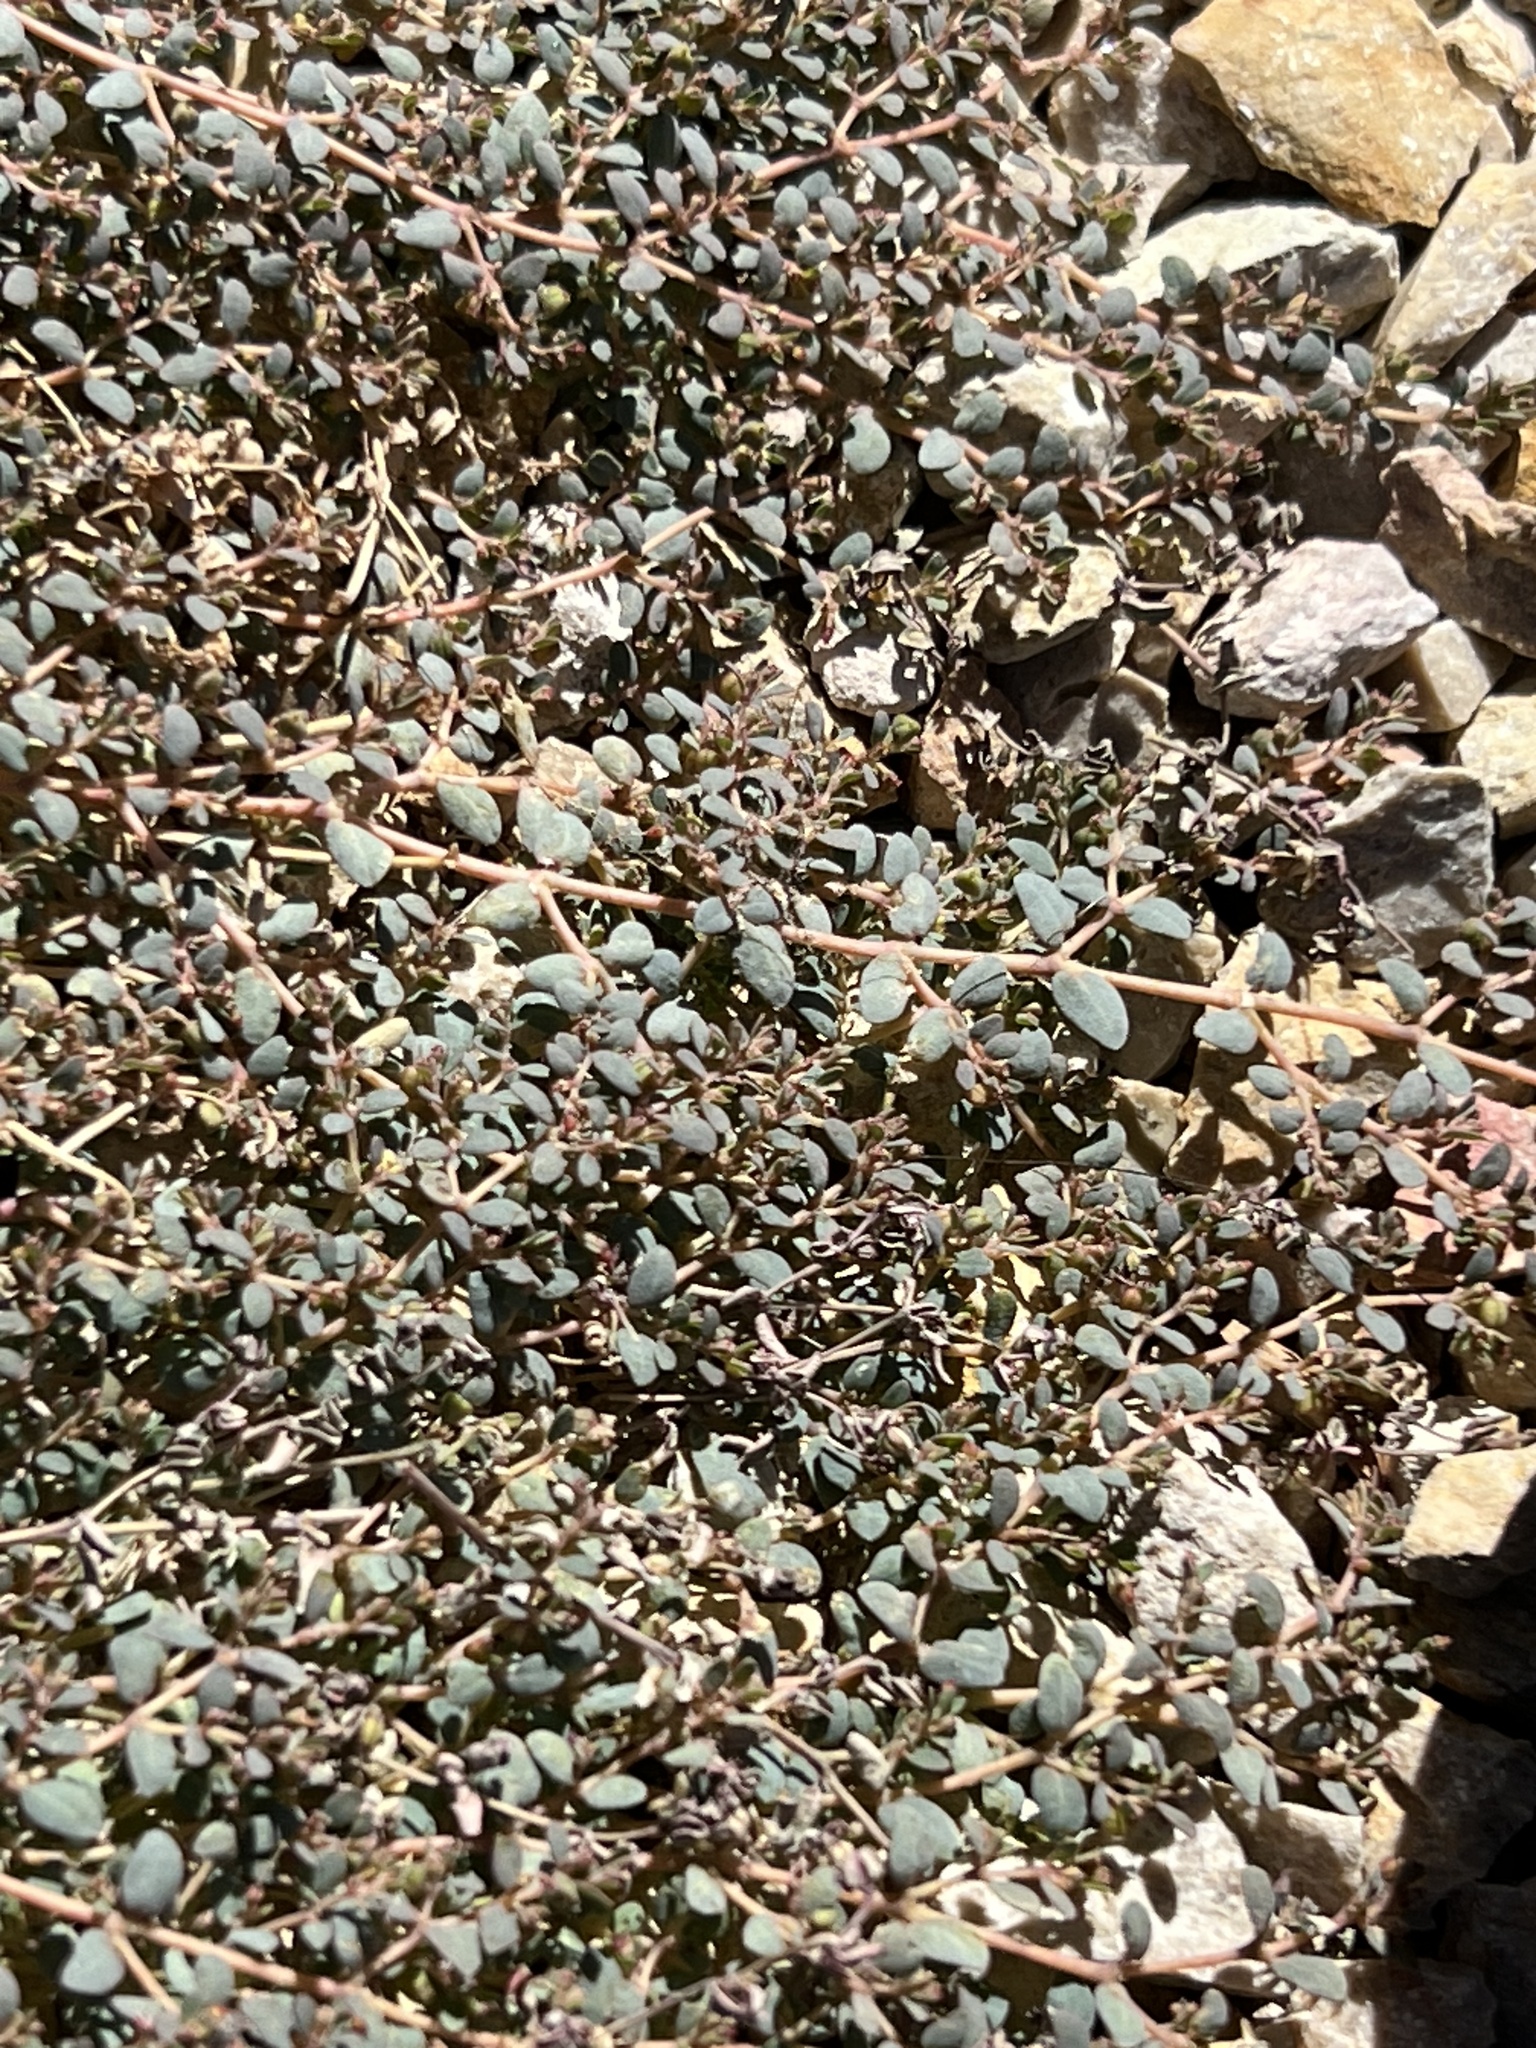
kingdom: Plantae
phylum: Tracheophyta
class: Magnoliopsida
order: Malpighiales
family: Euphorbiaceae
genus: Euphorbia
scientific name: Euphorbia micromera
